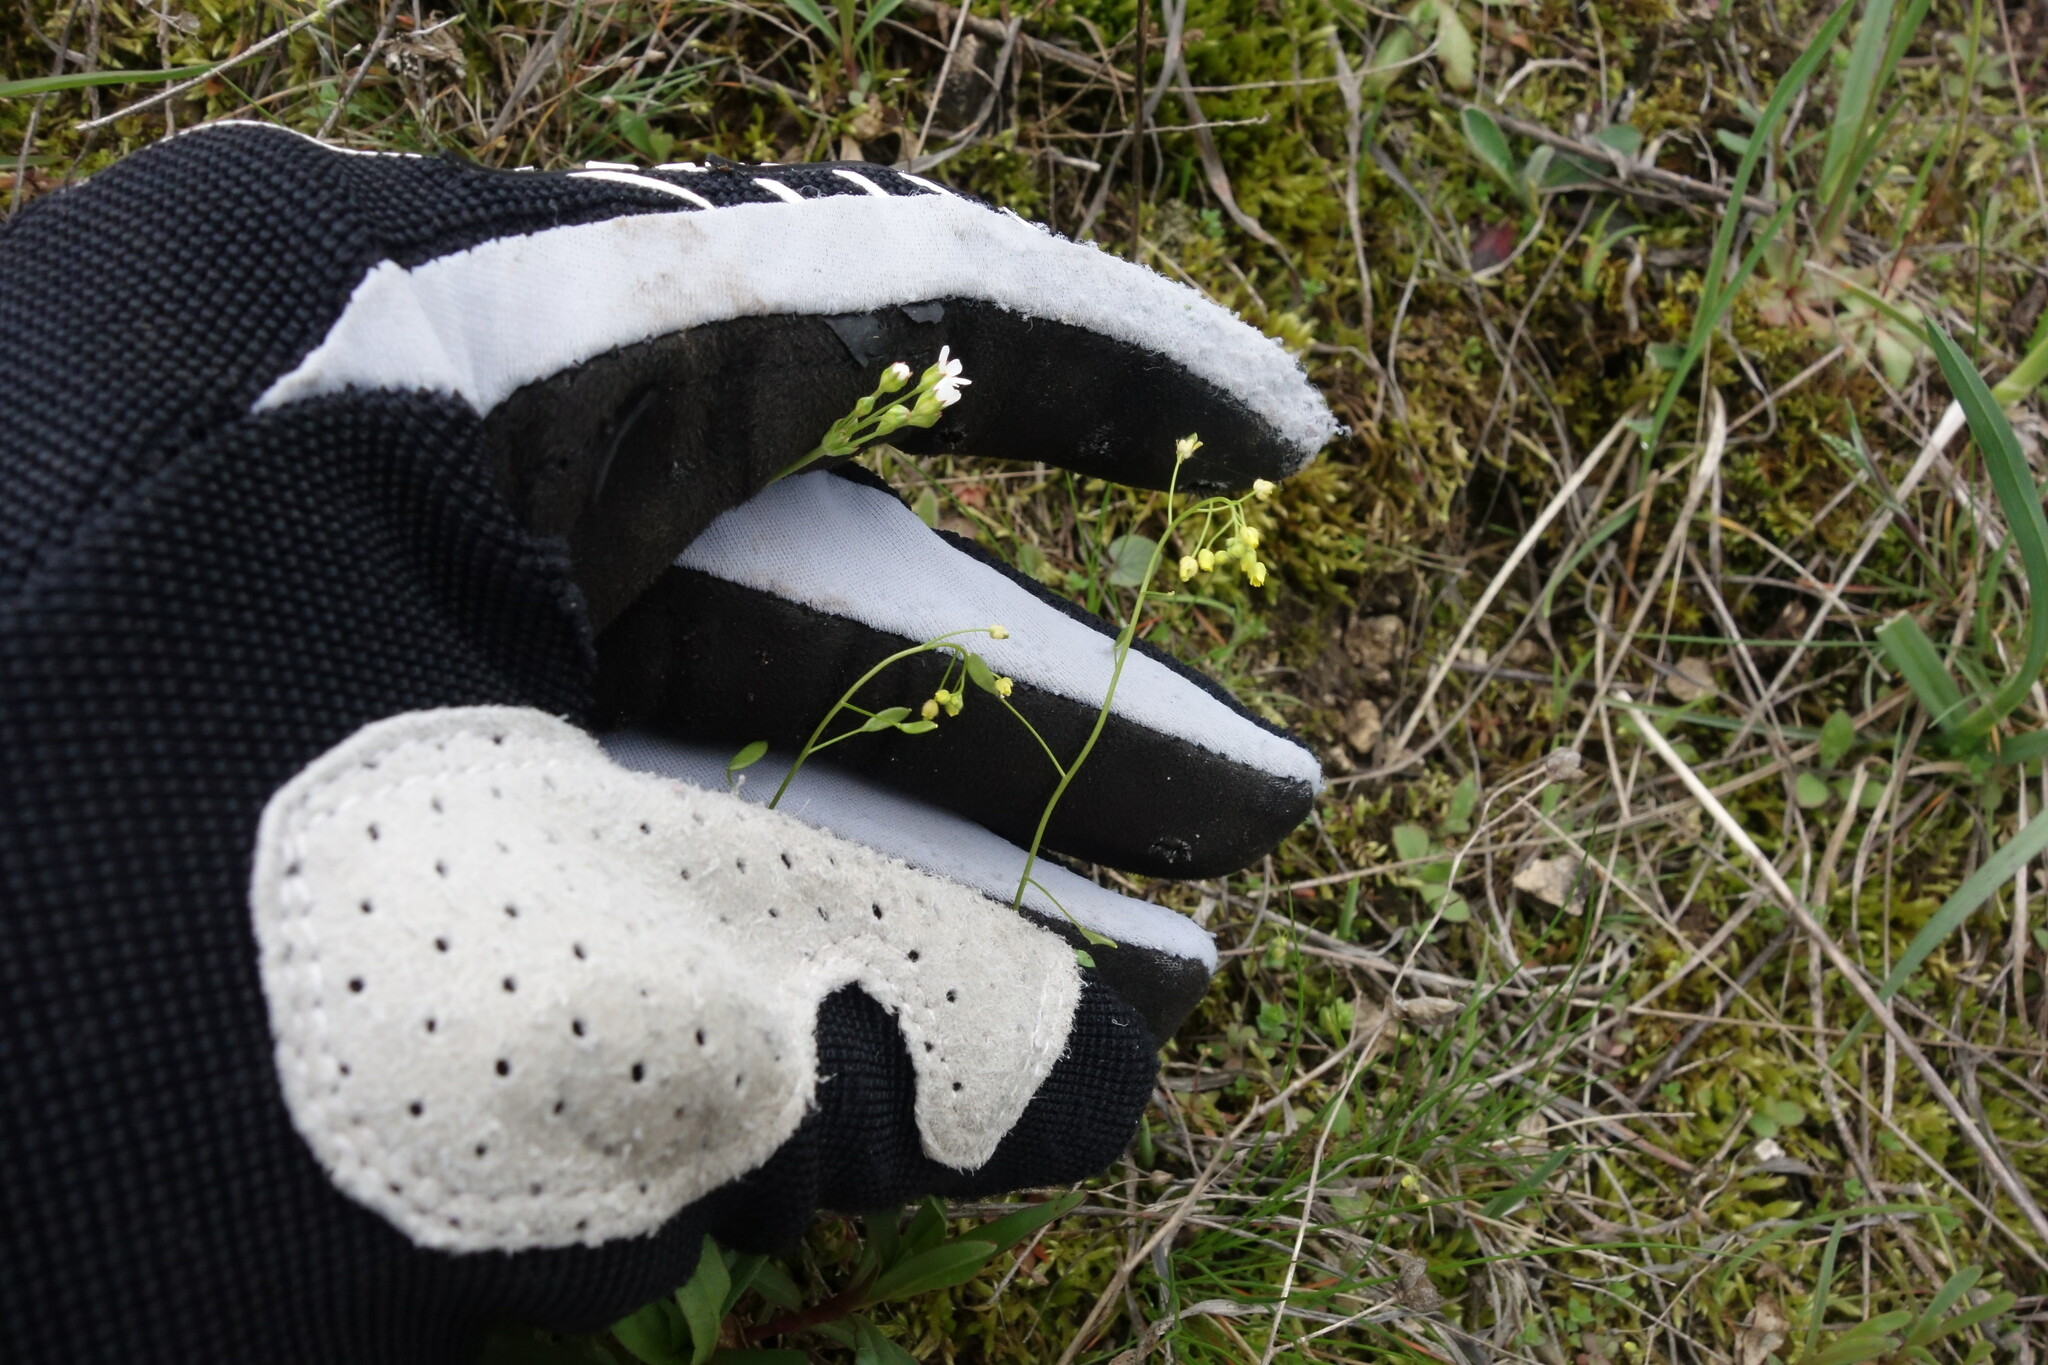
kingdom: Plantae
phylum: Tracheophyta
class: Magnoliopsida
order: Brassicales
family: Brassicaceae
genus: Draba
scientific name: Draba nemorosa
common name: Wood whitlow-grass
